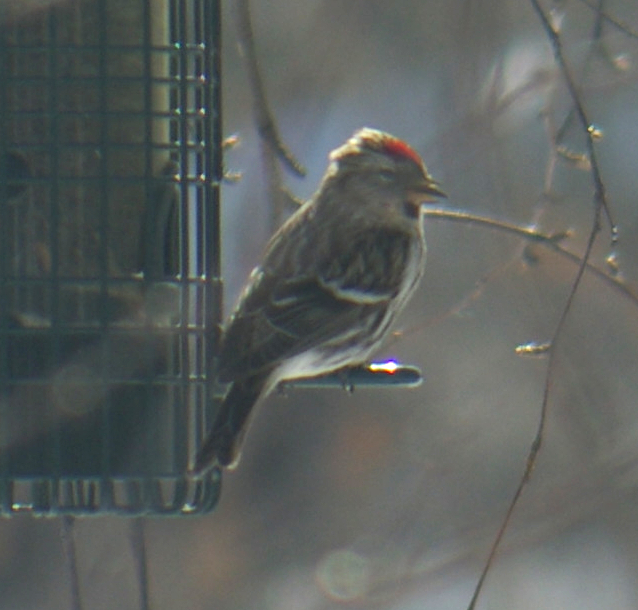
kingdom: Animalia
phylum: Chordata
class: Aves
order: Passeriformes
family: Fringillidae
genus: Acanthis
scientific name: Acanthis flammea
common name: Common redpoll
